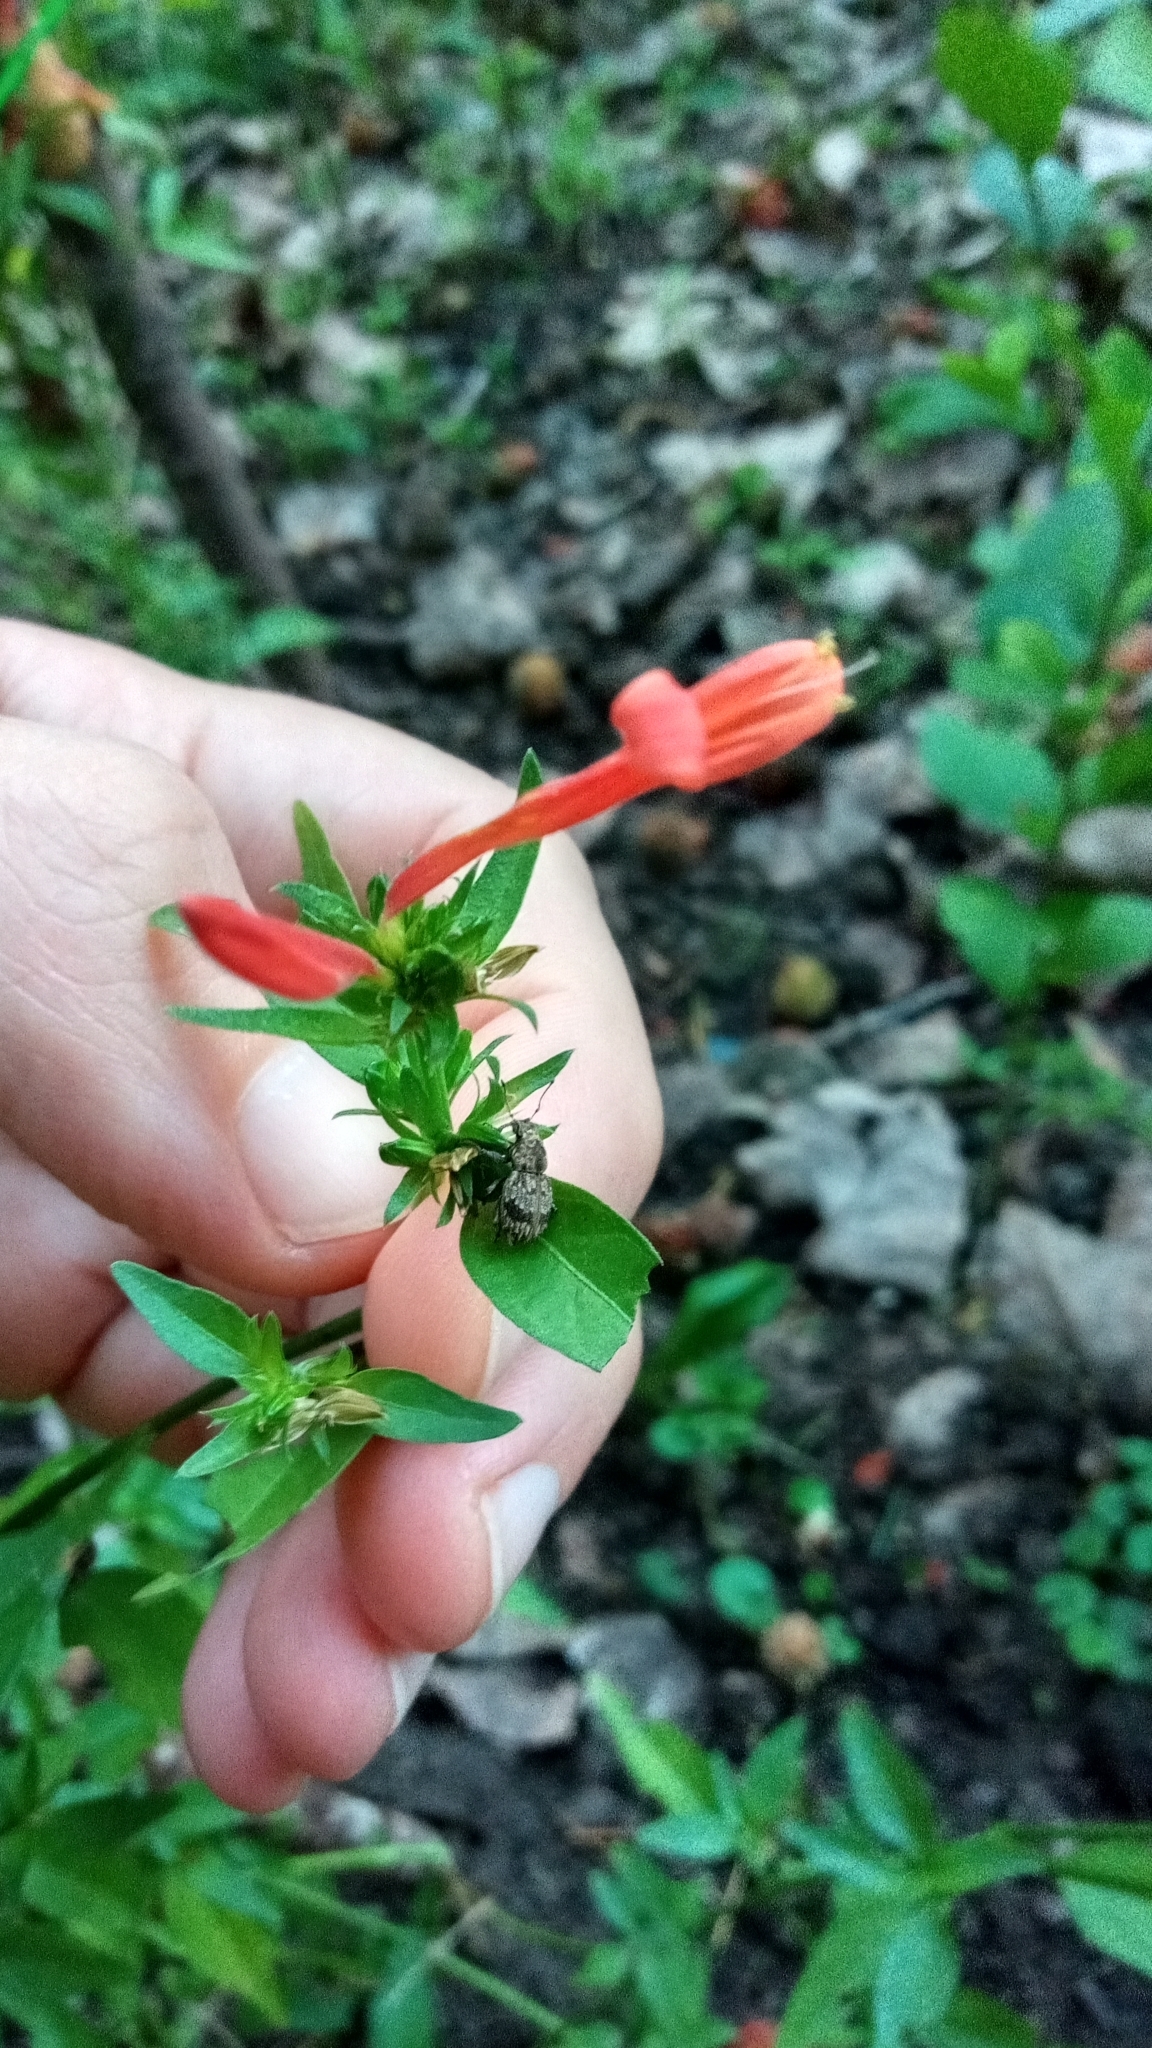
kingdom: Animalia
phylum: Arthropoda
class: Insecta
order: Coleoptera
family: Curculionidae
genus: Pantomorus
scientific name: Pantomorus
